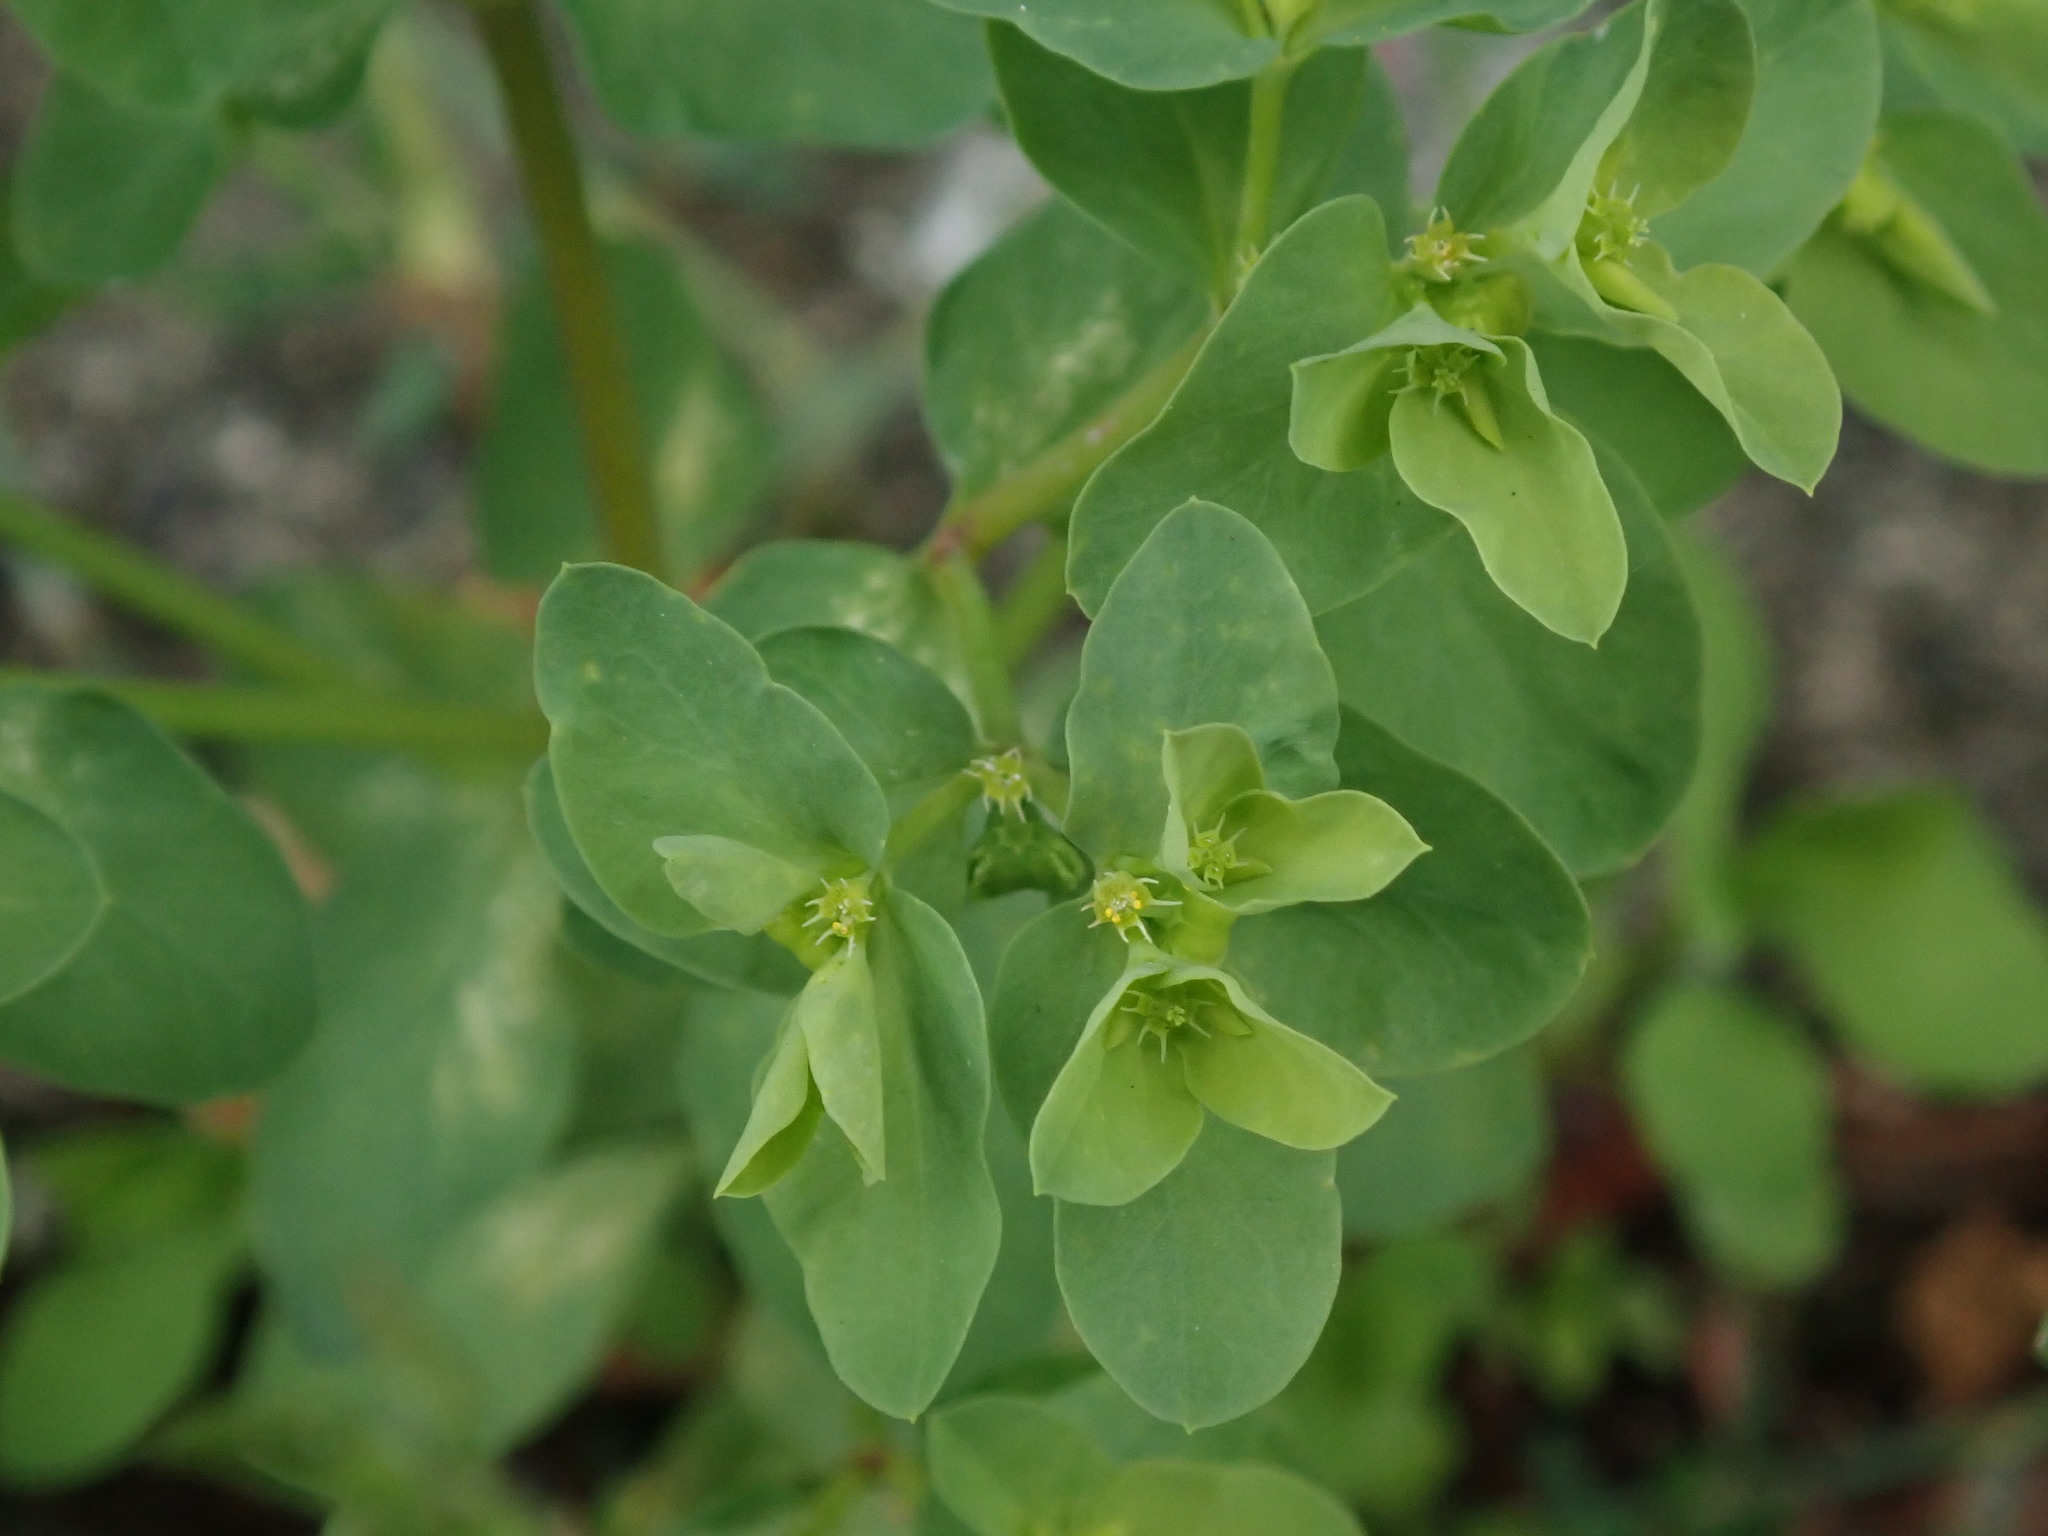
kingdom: Plantae
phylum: Tracheophyta
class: Magnoliopsida
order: Malpighiales
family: Euphorbiaceae
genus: Euphorbia
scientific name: Euphorbia peplus
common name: Petty spurge
